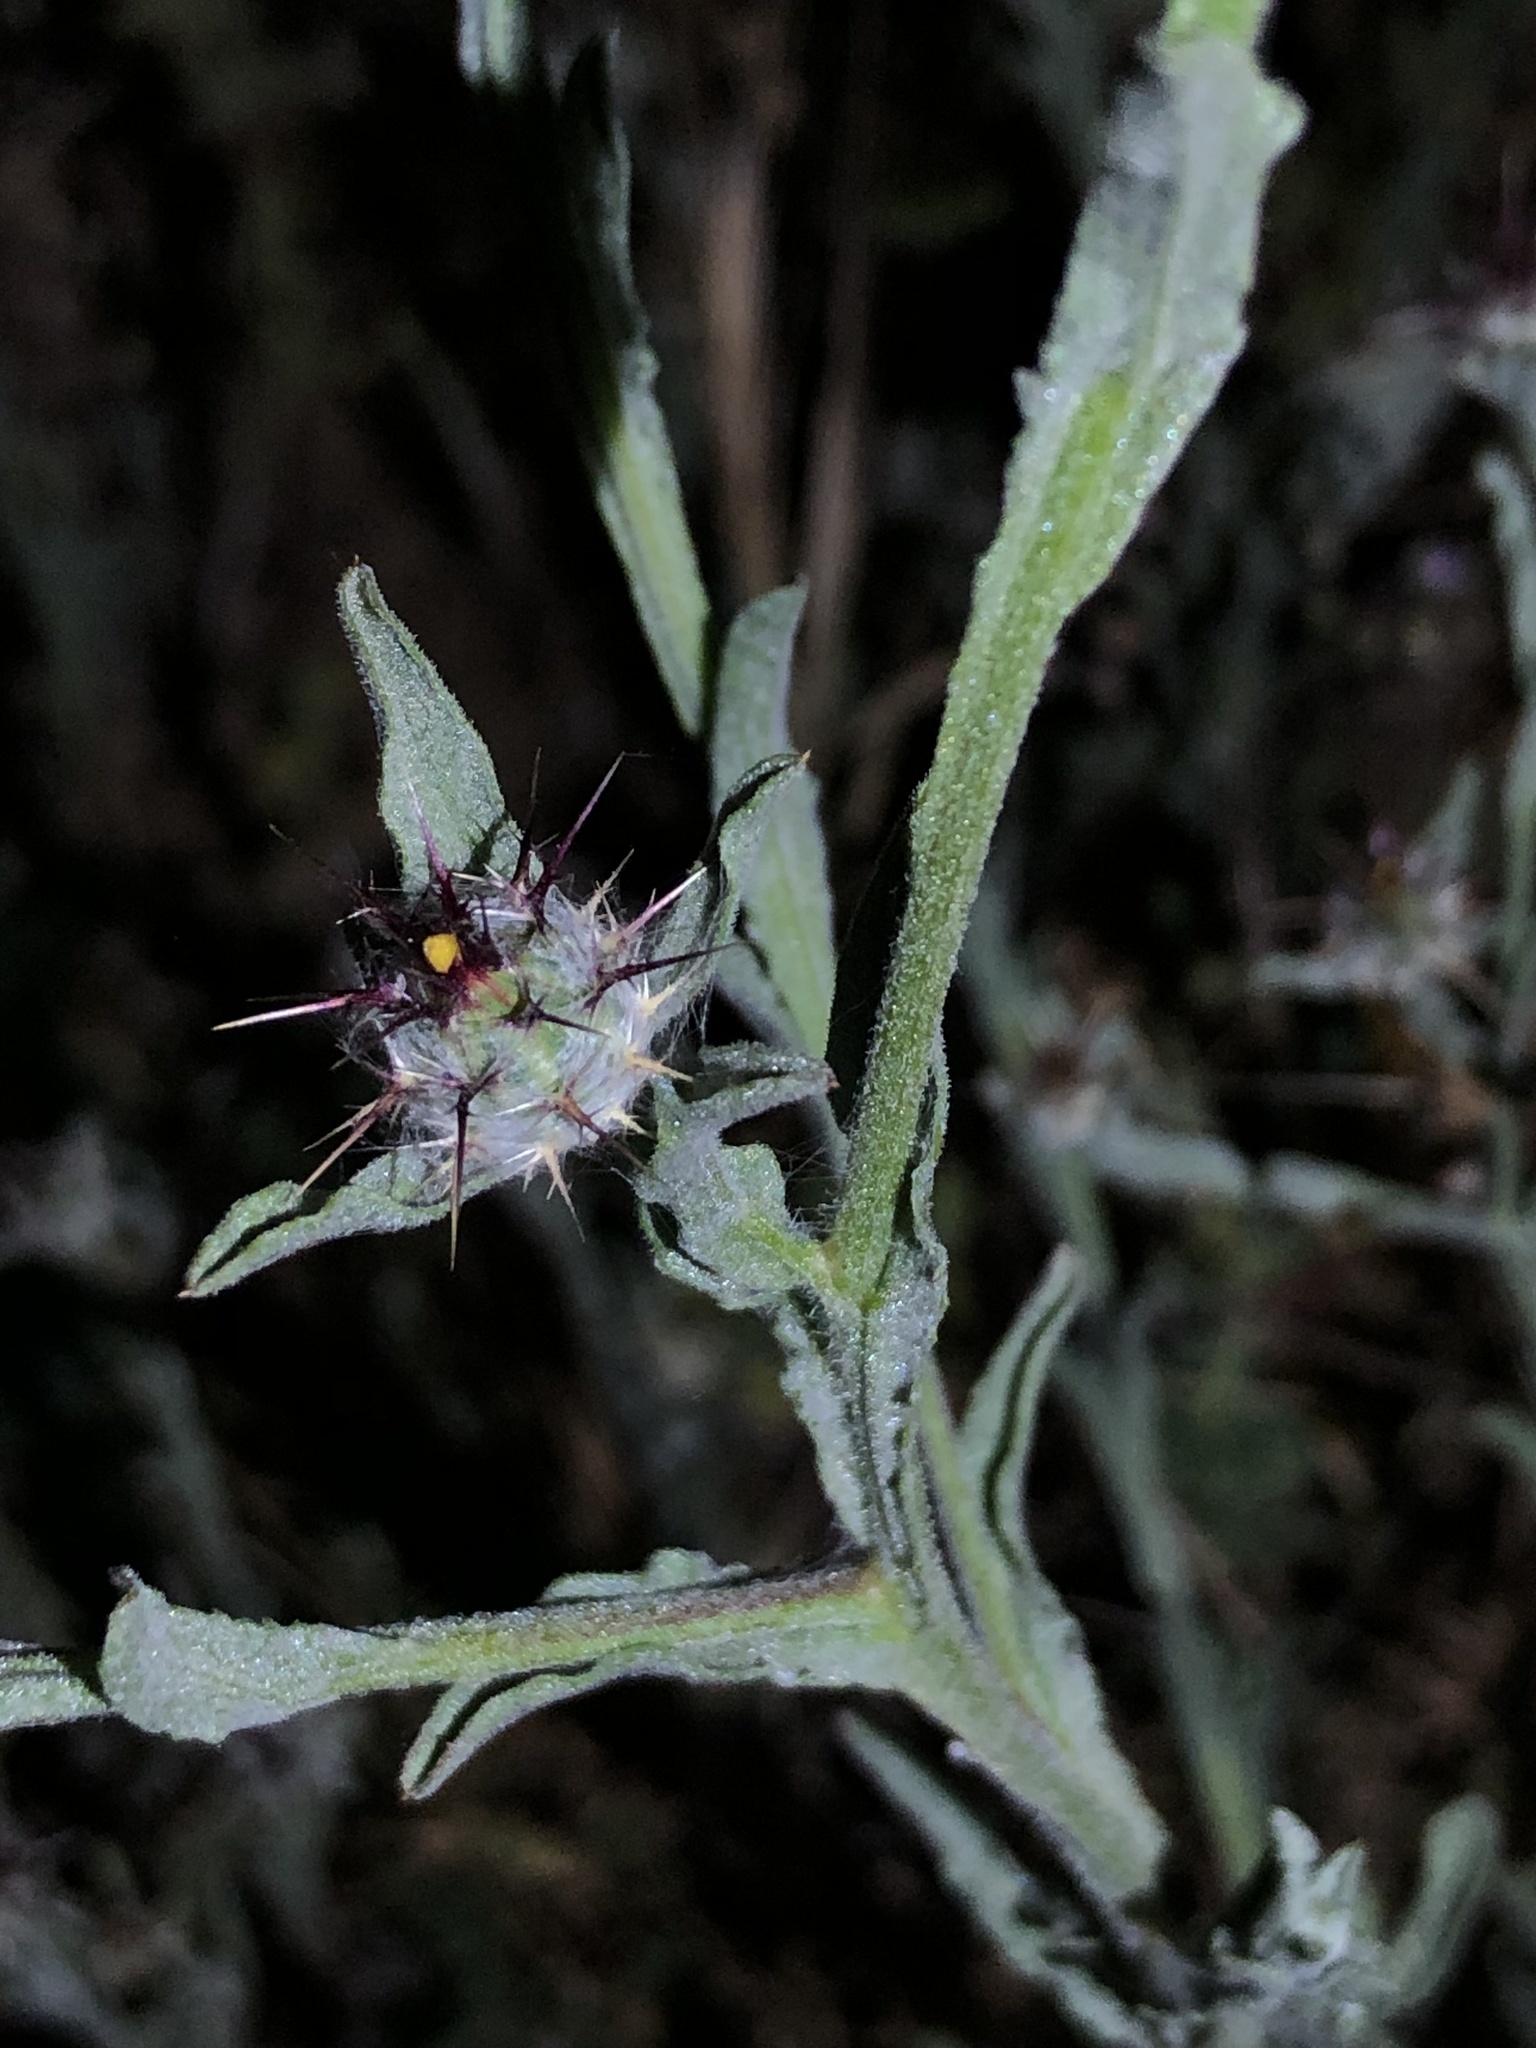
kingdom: Plantae
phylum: Tracheophyta
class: Magnoliopsida
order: Asterales
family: Asteraceae
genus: Centaurea
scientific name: Centaurea melitensis
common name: Maltese star-thistle
